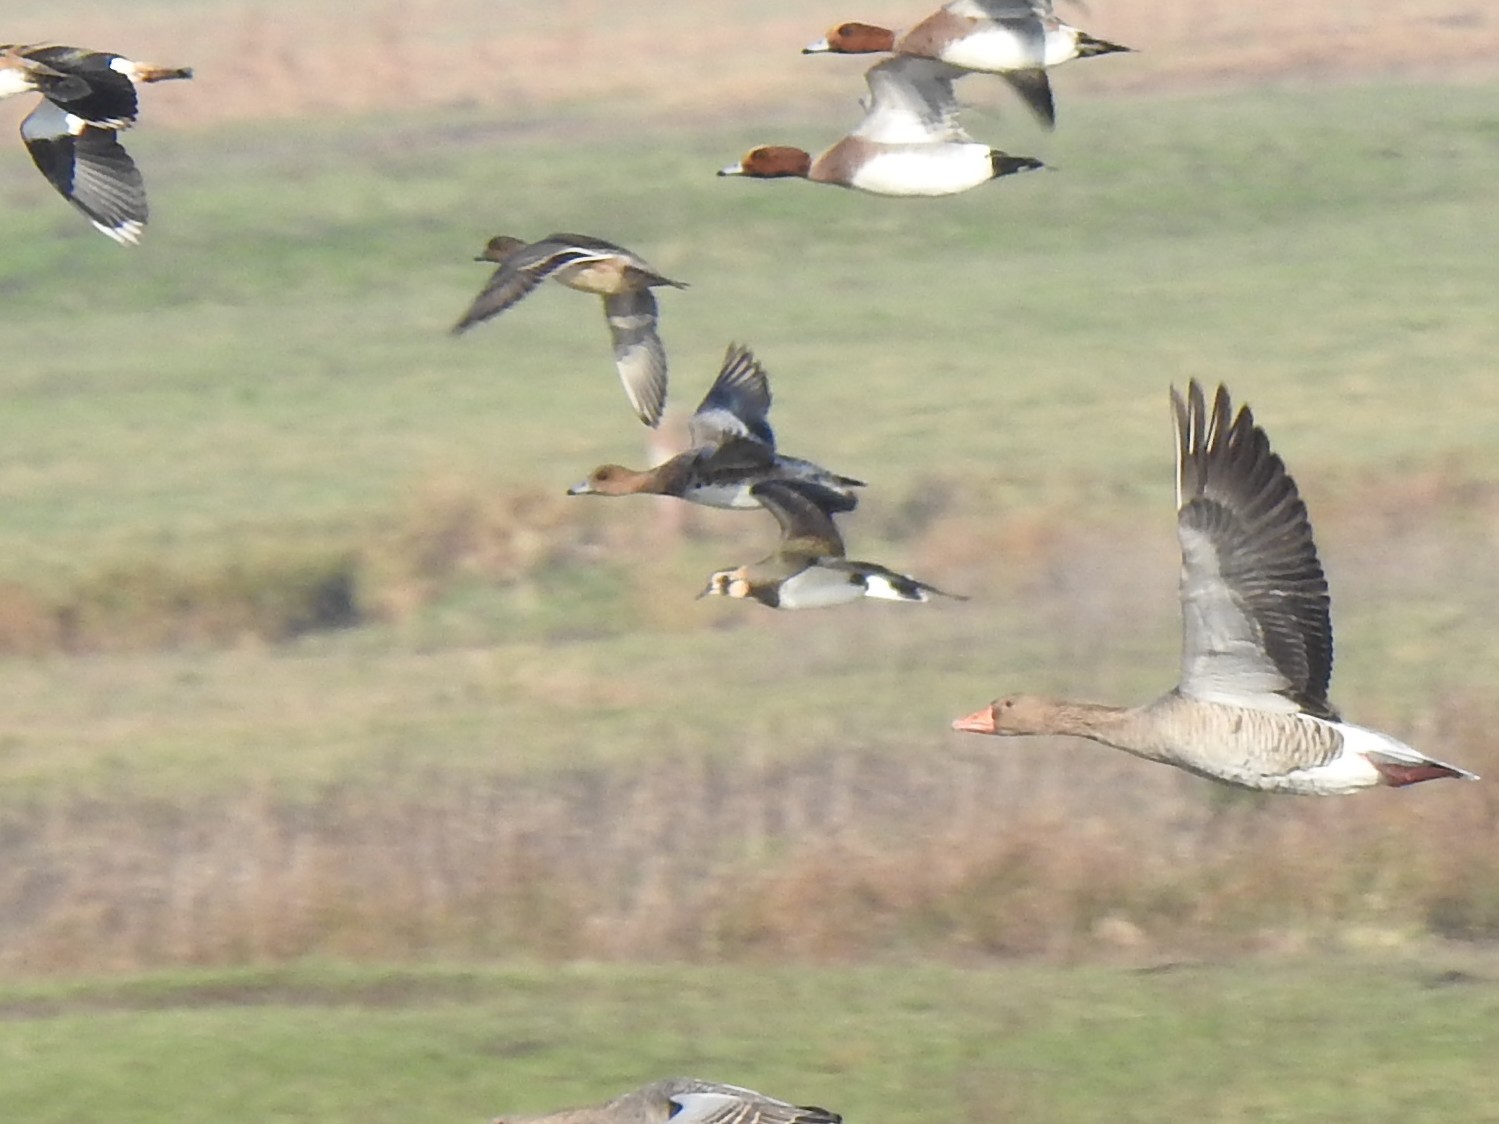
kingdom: Animalia
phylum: Chordata
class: Aves
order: Charadriiformes
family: Charadriidae
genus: Vanellus
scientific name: Vanellus vanellus
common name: Northern lapwing
